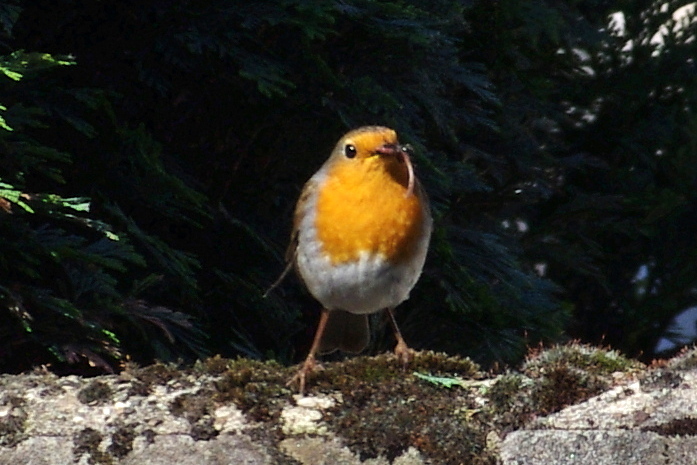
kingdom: Animalia
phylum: Chordata
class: Aves
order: Passeriformes
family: Muscicapidae
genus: Erithacus
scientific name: Erithacus rubecula
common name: European robin
